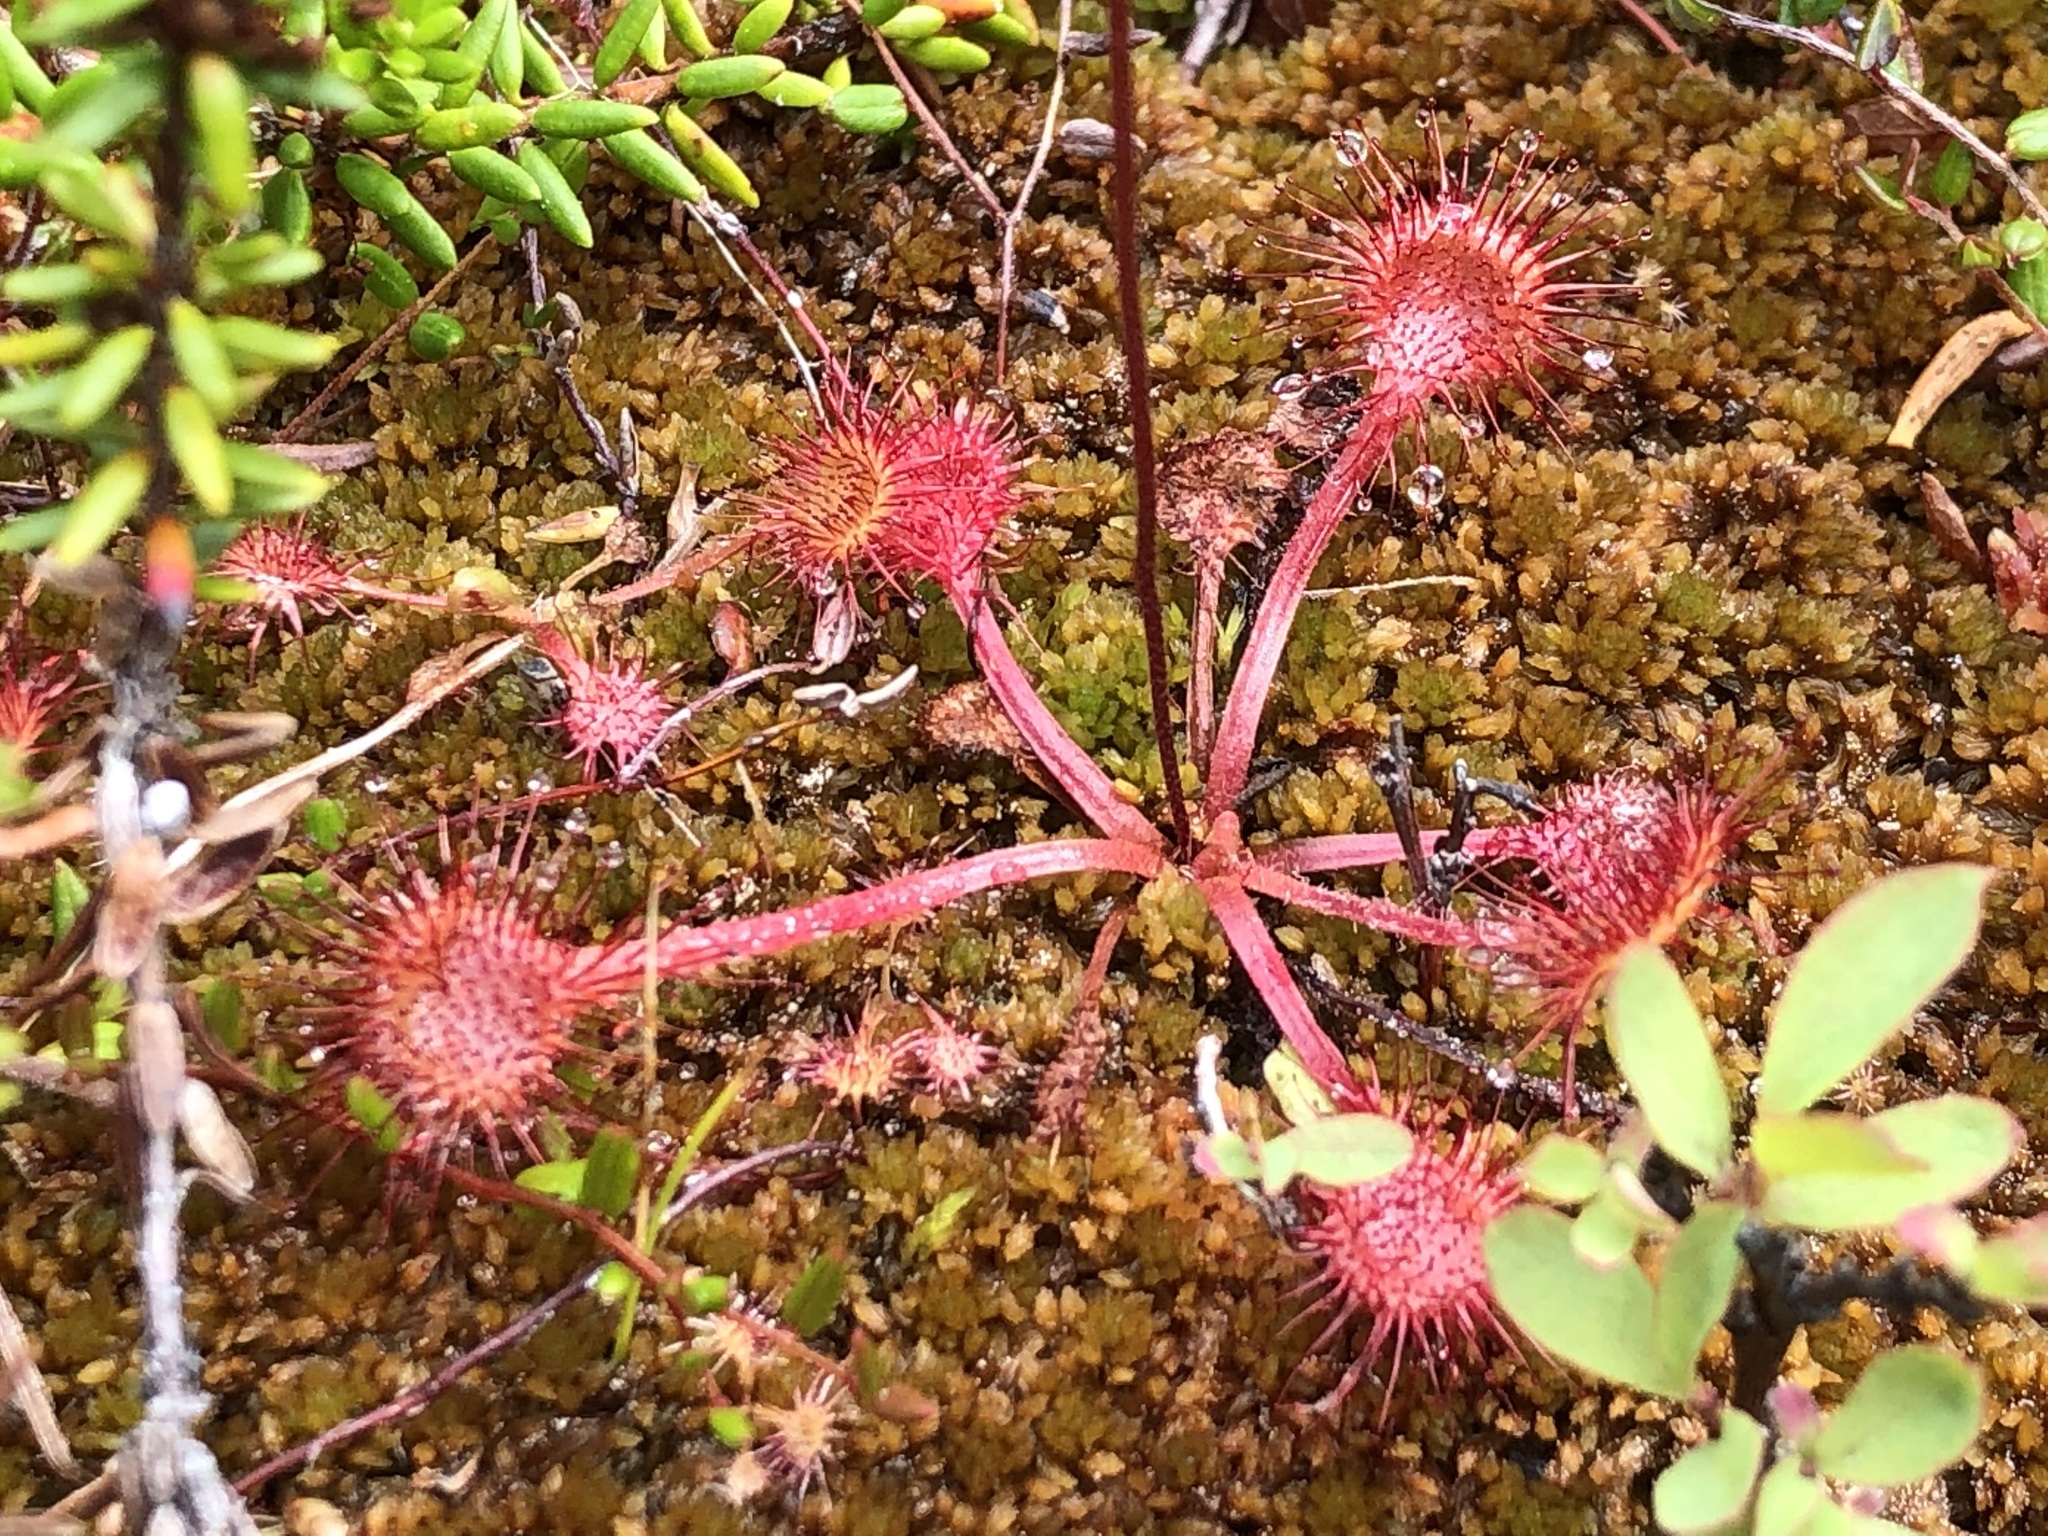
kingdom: Plantae
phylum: Tracheophyta
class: Magnoliopsida
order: Caryophyllales
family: Droseraceae
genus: Drosera
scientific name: Drosera rotundifolia
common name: Round-leaved sundew
